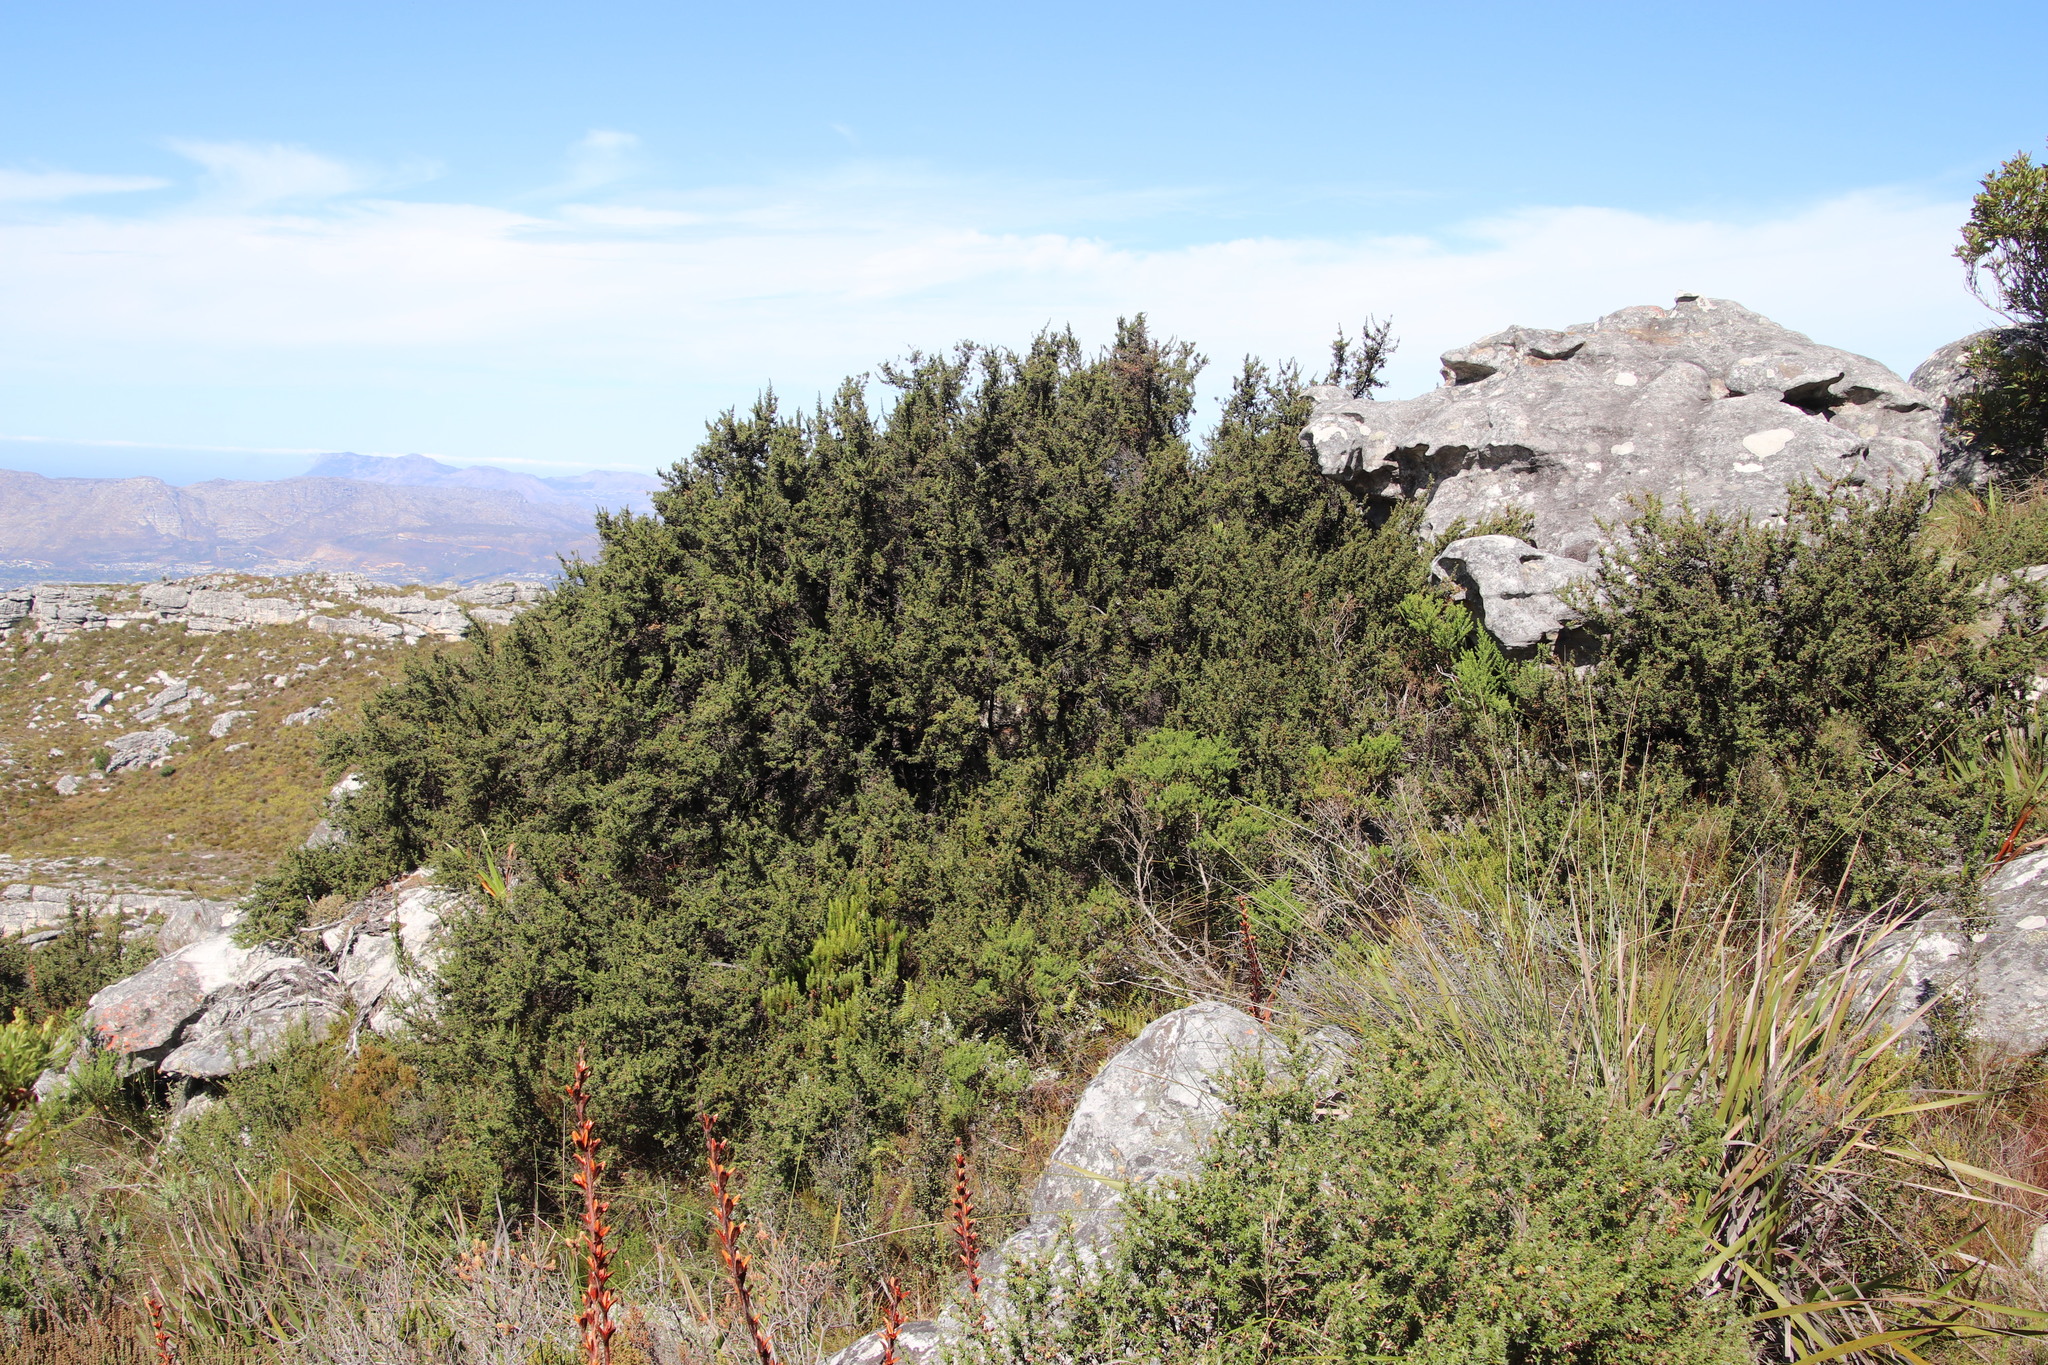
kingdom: Plantae
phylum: Tracheophyta
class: Magnoliopsida
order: Rosales
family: Rosaceae
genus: Cliffortia
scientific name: Cliffortia theodori-friesii
